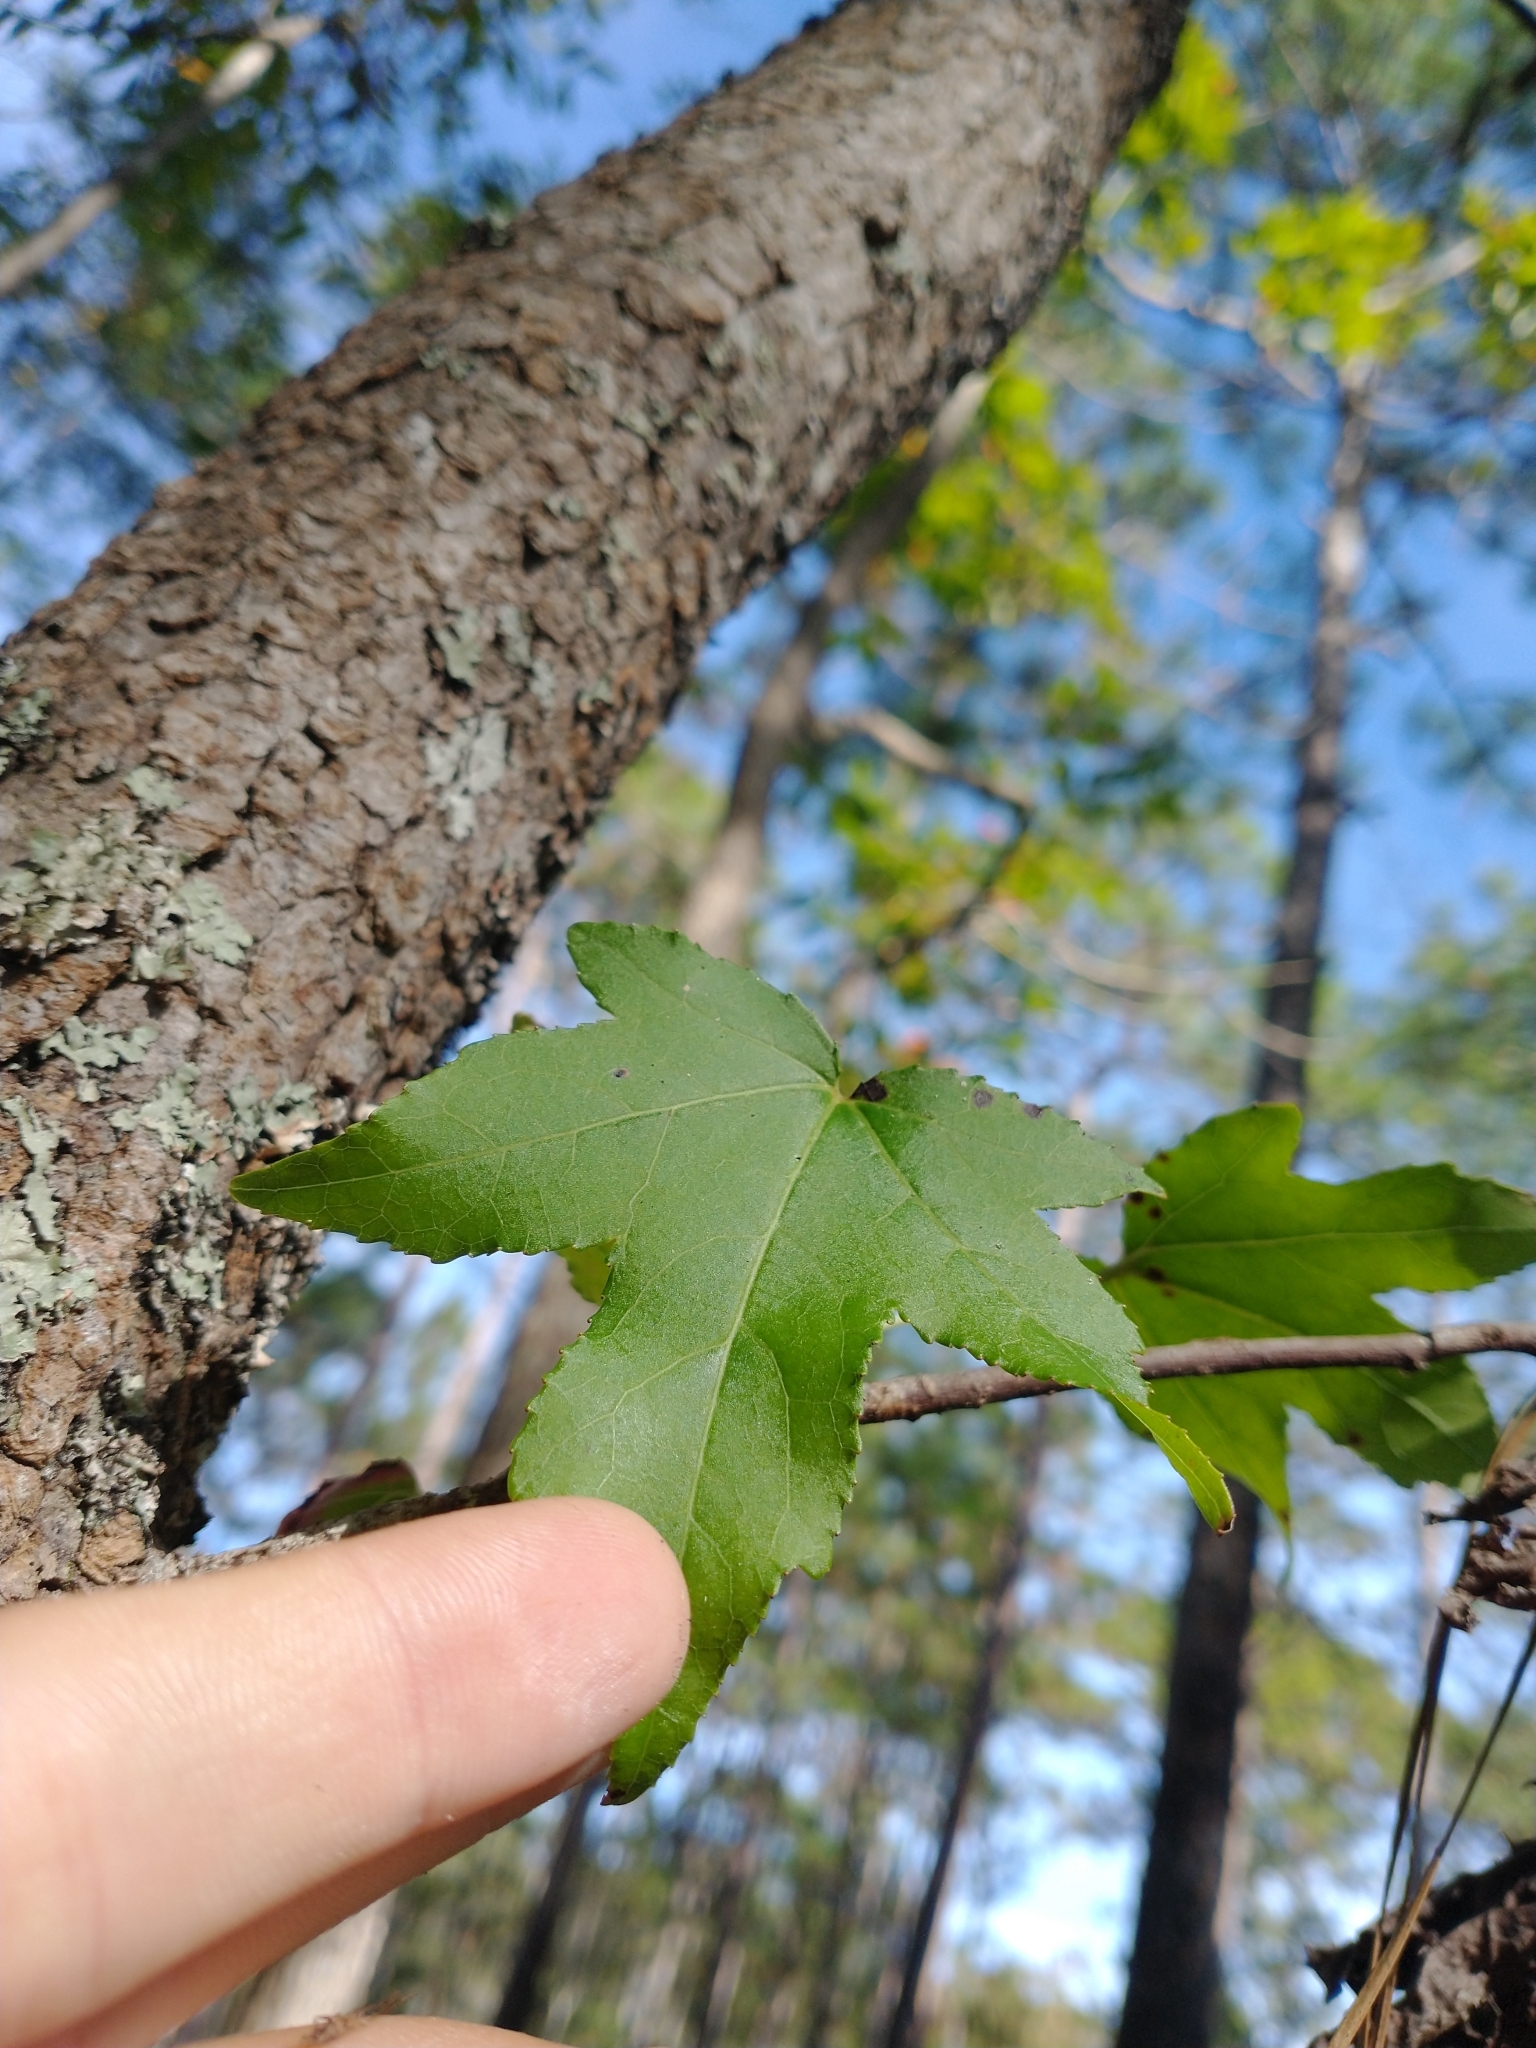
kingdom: Plantae
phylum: Tracheophyta
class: Magnoliopsida
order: Saxifragales
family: Altingiaceae
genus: Liquidambar
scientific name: Liquidambar styraciflua
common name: Sweet gum
